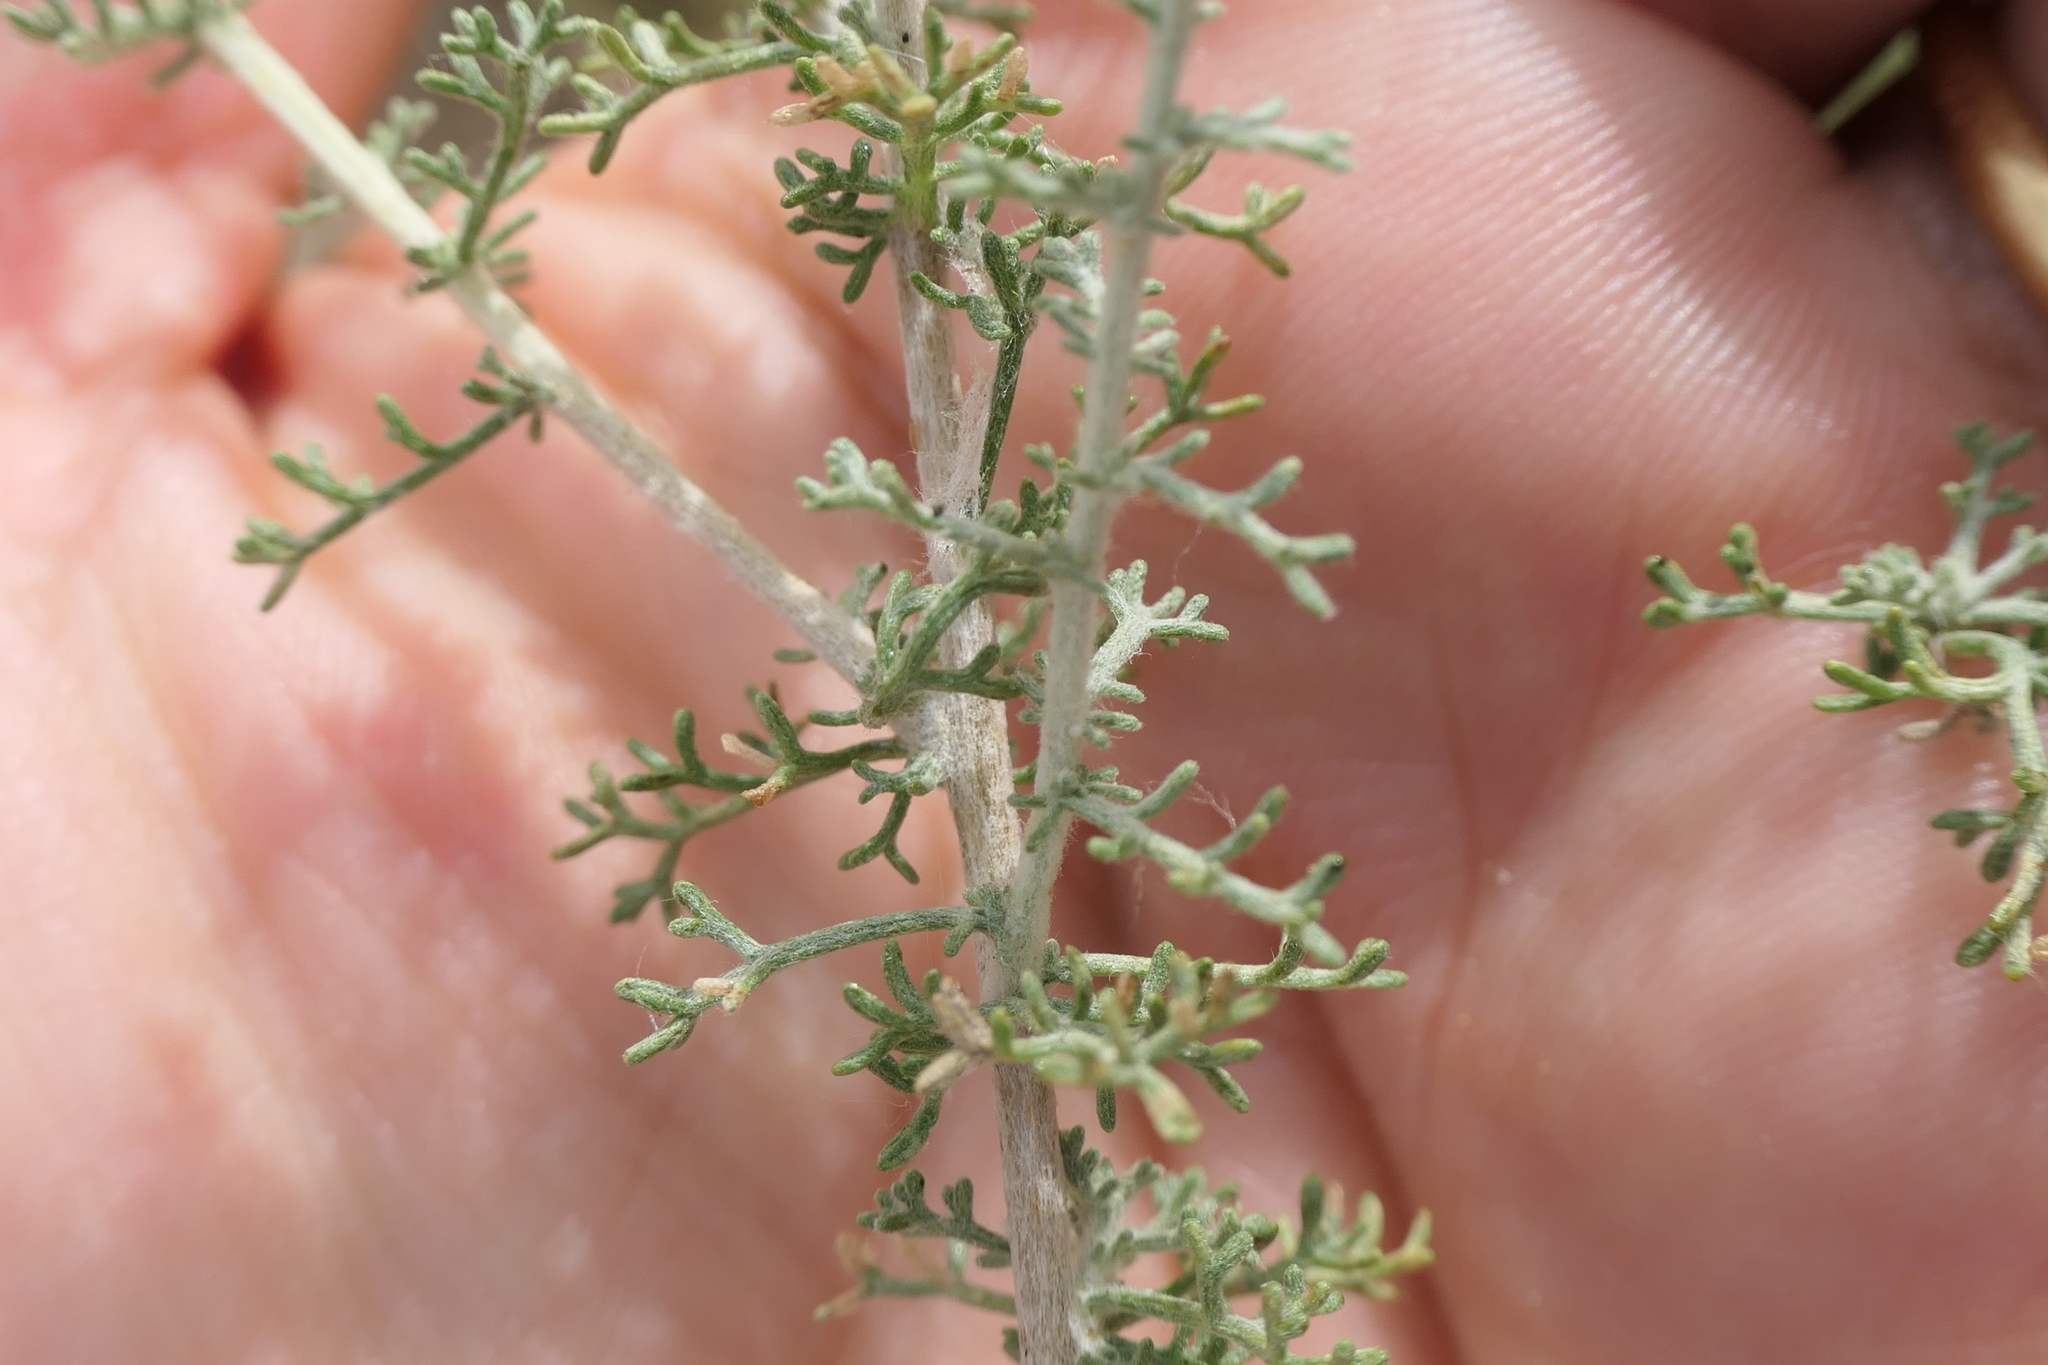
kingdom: Plantae
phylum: Tracheophyta
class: Magnoliopsida
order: Asterales
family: Asteraceae
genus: Artemisia
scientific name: Artemisia herba-alba
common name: White wormwood
